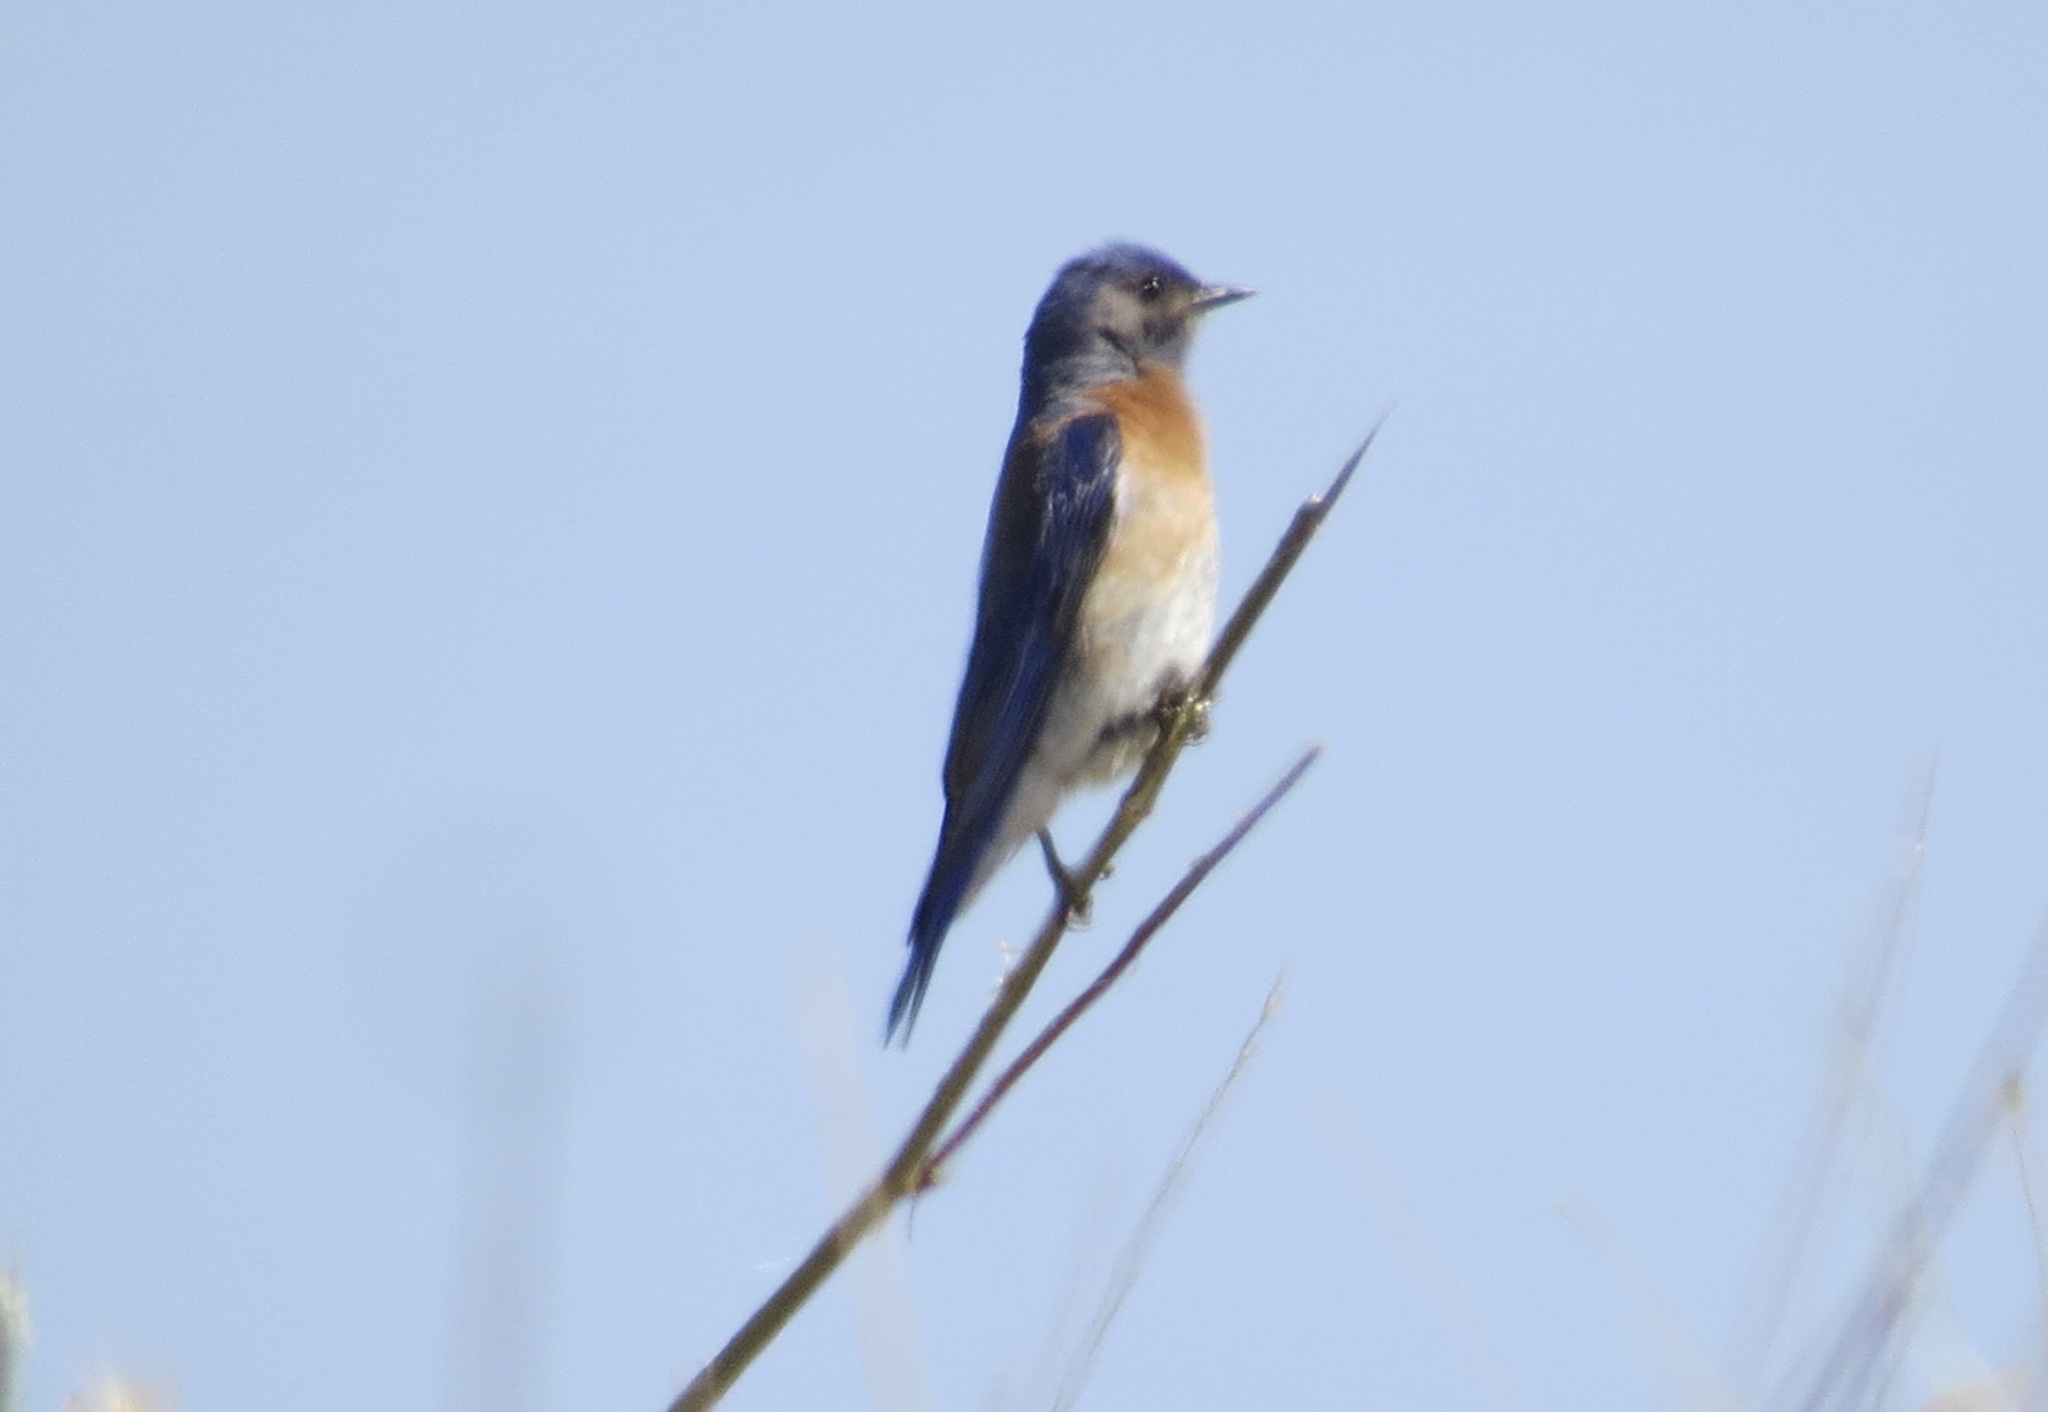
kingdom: Animalia
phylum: Chordata
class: Aves
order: Passeriformes
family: Turdidae
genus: Sialia
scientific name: Sialia mexicana
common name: Western bluebird
